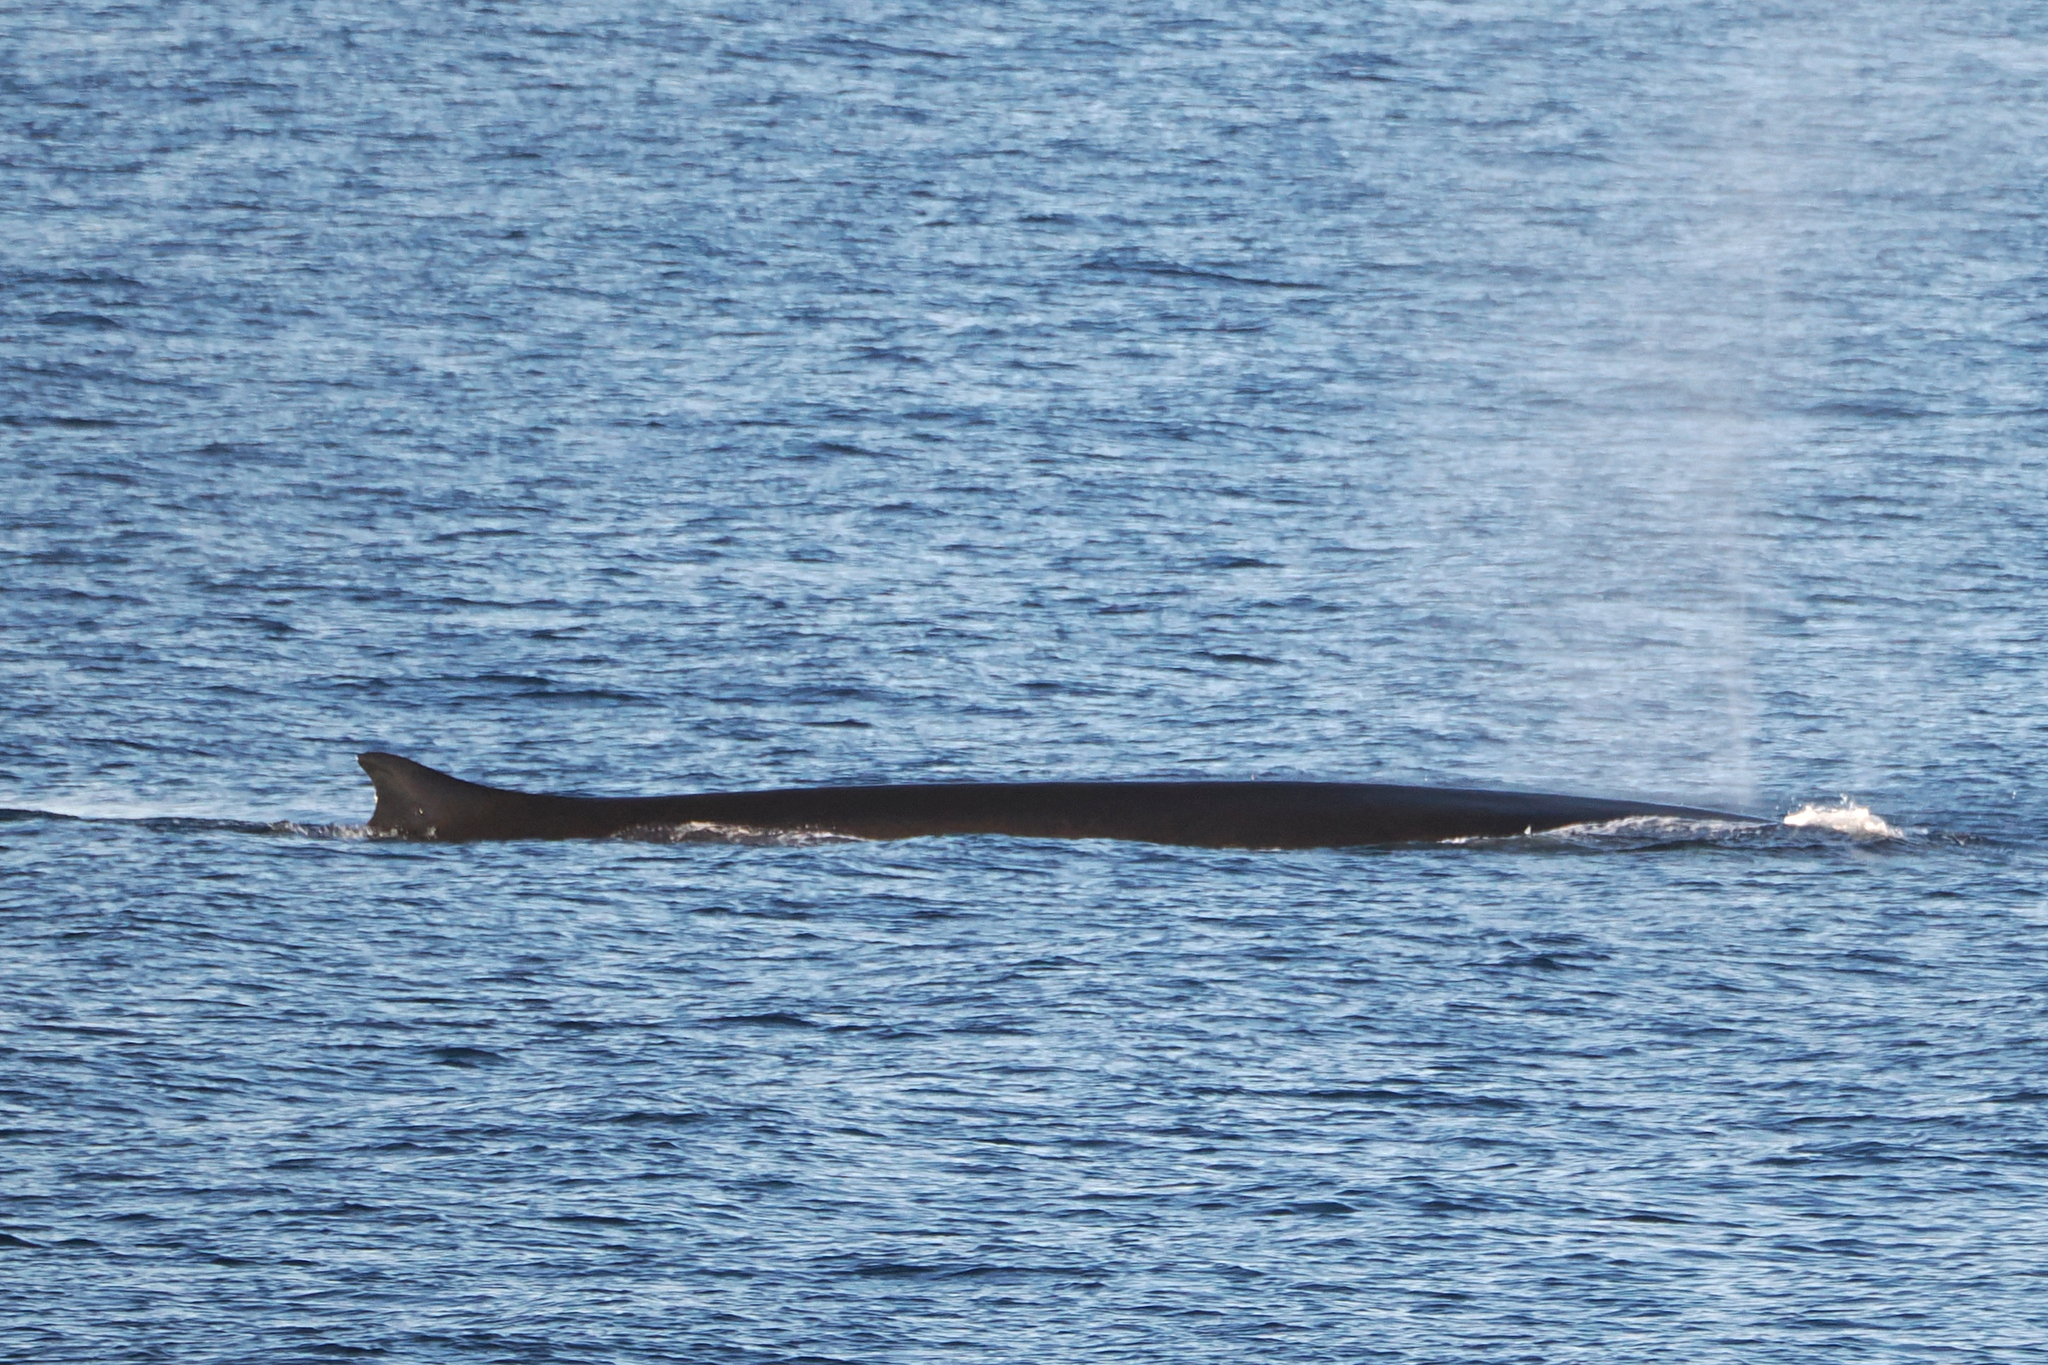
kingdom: Animalia
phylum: Chordata
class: Mammalia
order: Cetacea
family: Balaenopteridae
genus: Balaenoptera
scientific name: Balaenoptera physalus
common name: Fin whale
